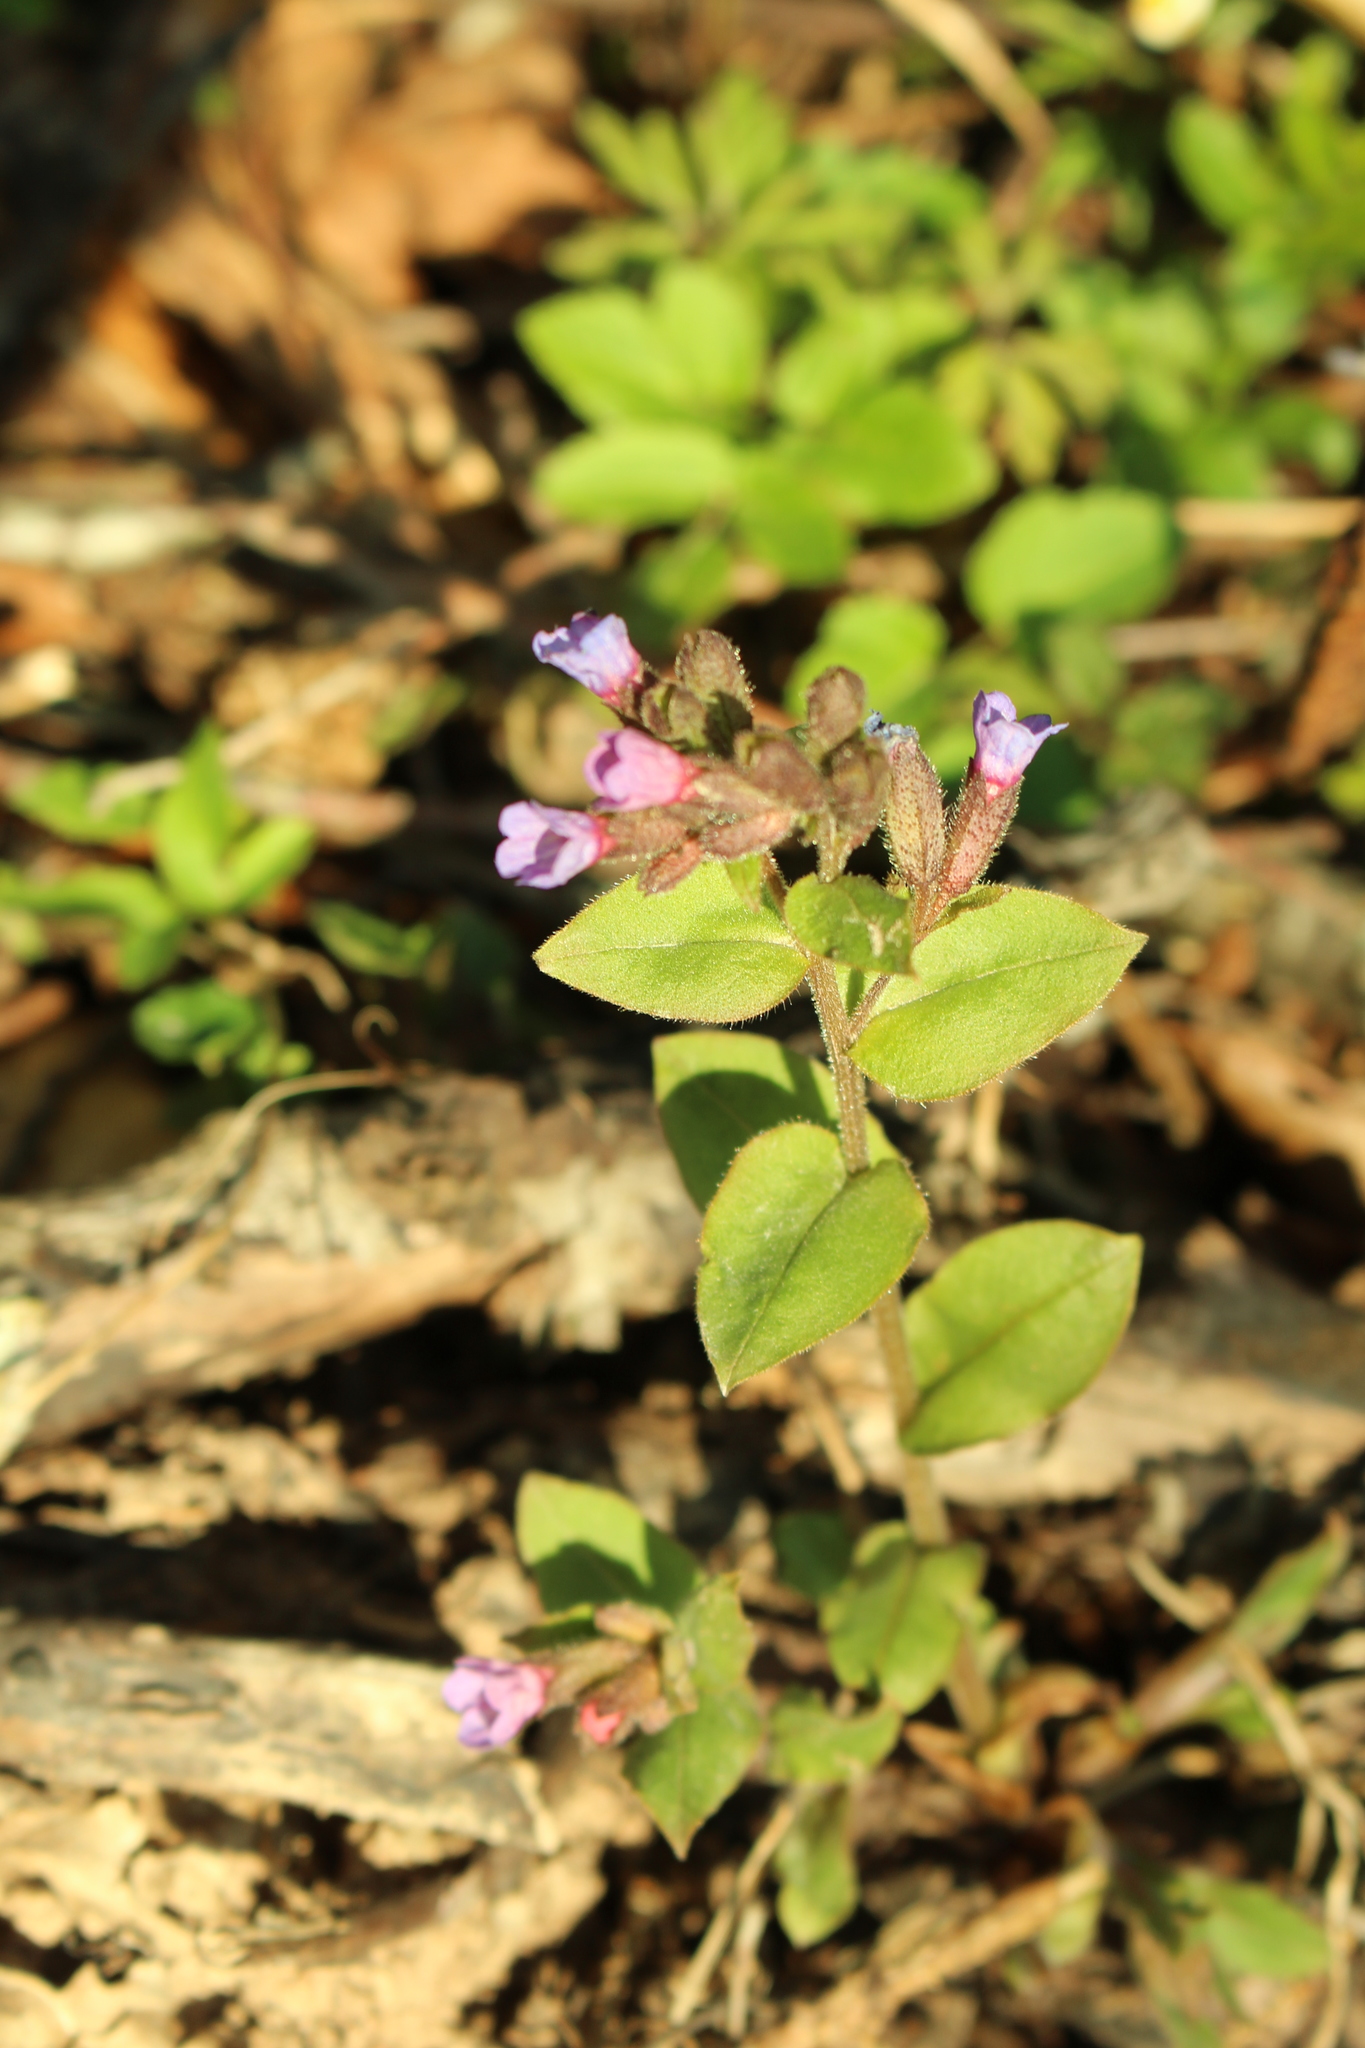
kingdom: Plantae
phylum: Tracheophyta
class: Magnoliopsida
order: Boraginales
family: Boraginaceae
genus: Pulmonaria
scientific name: Pulmonaria obscura
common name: Suffolk lungwort
